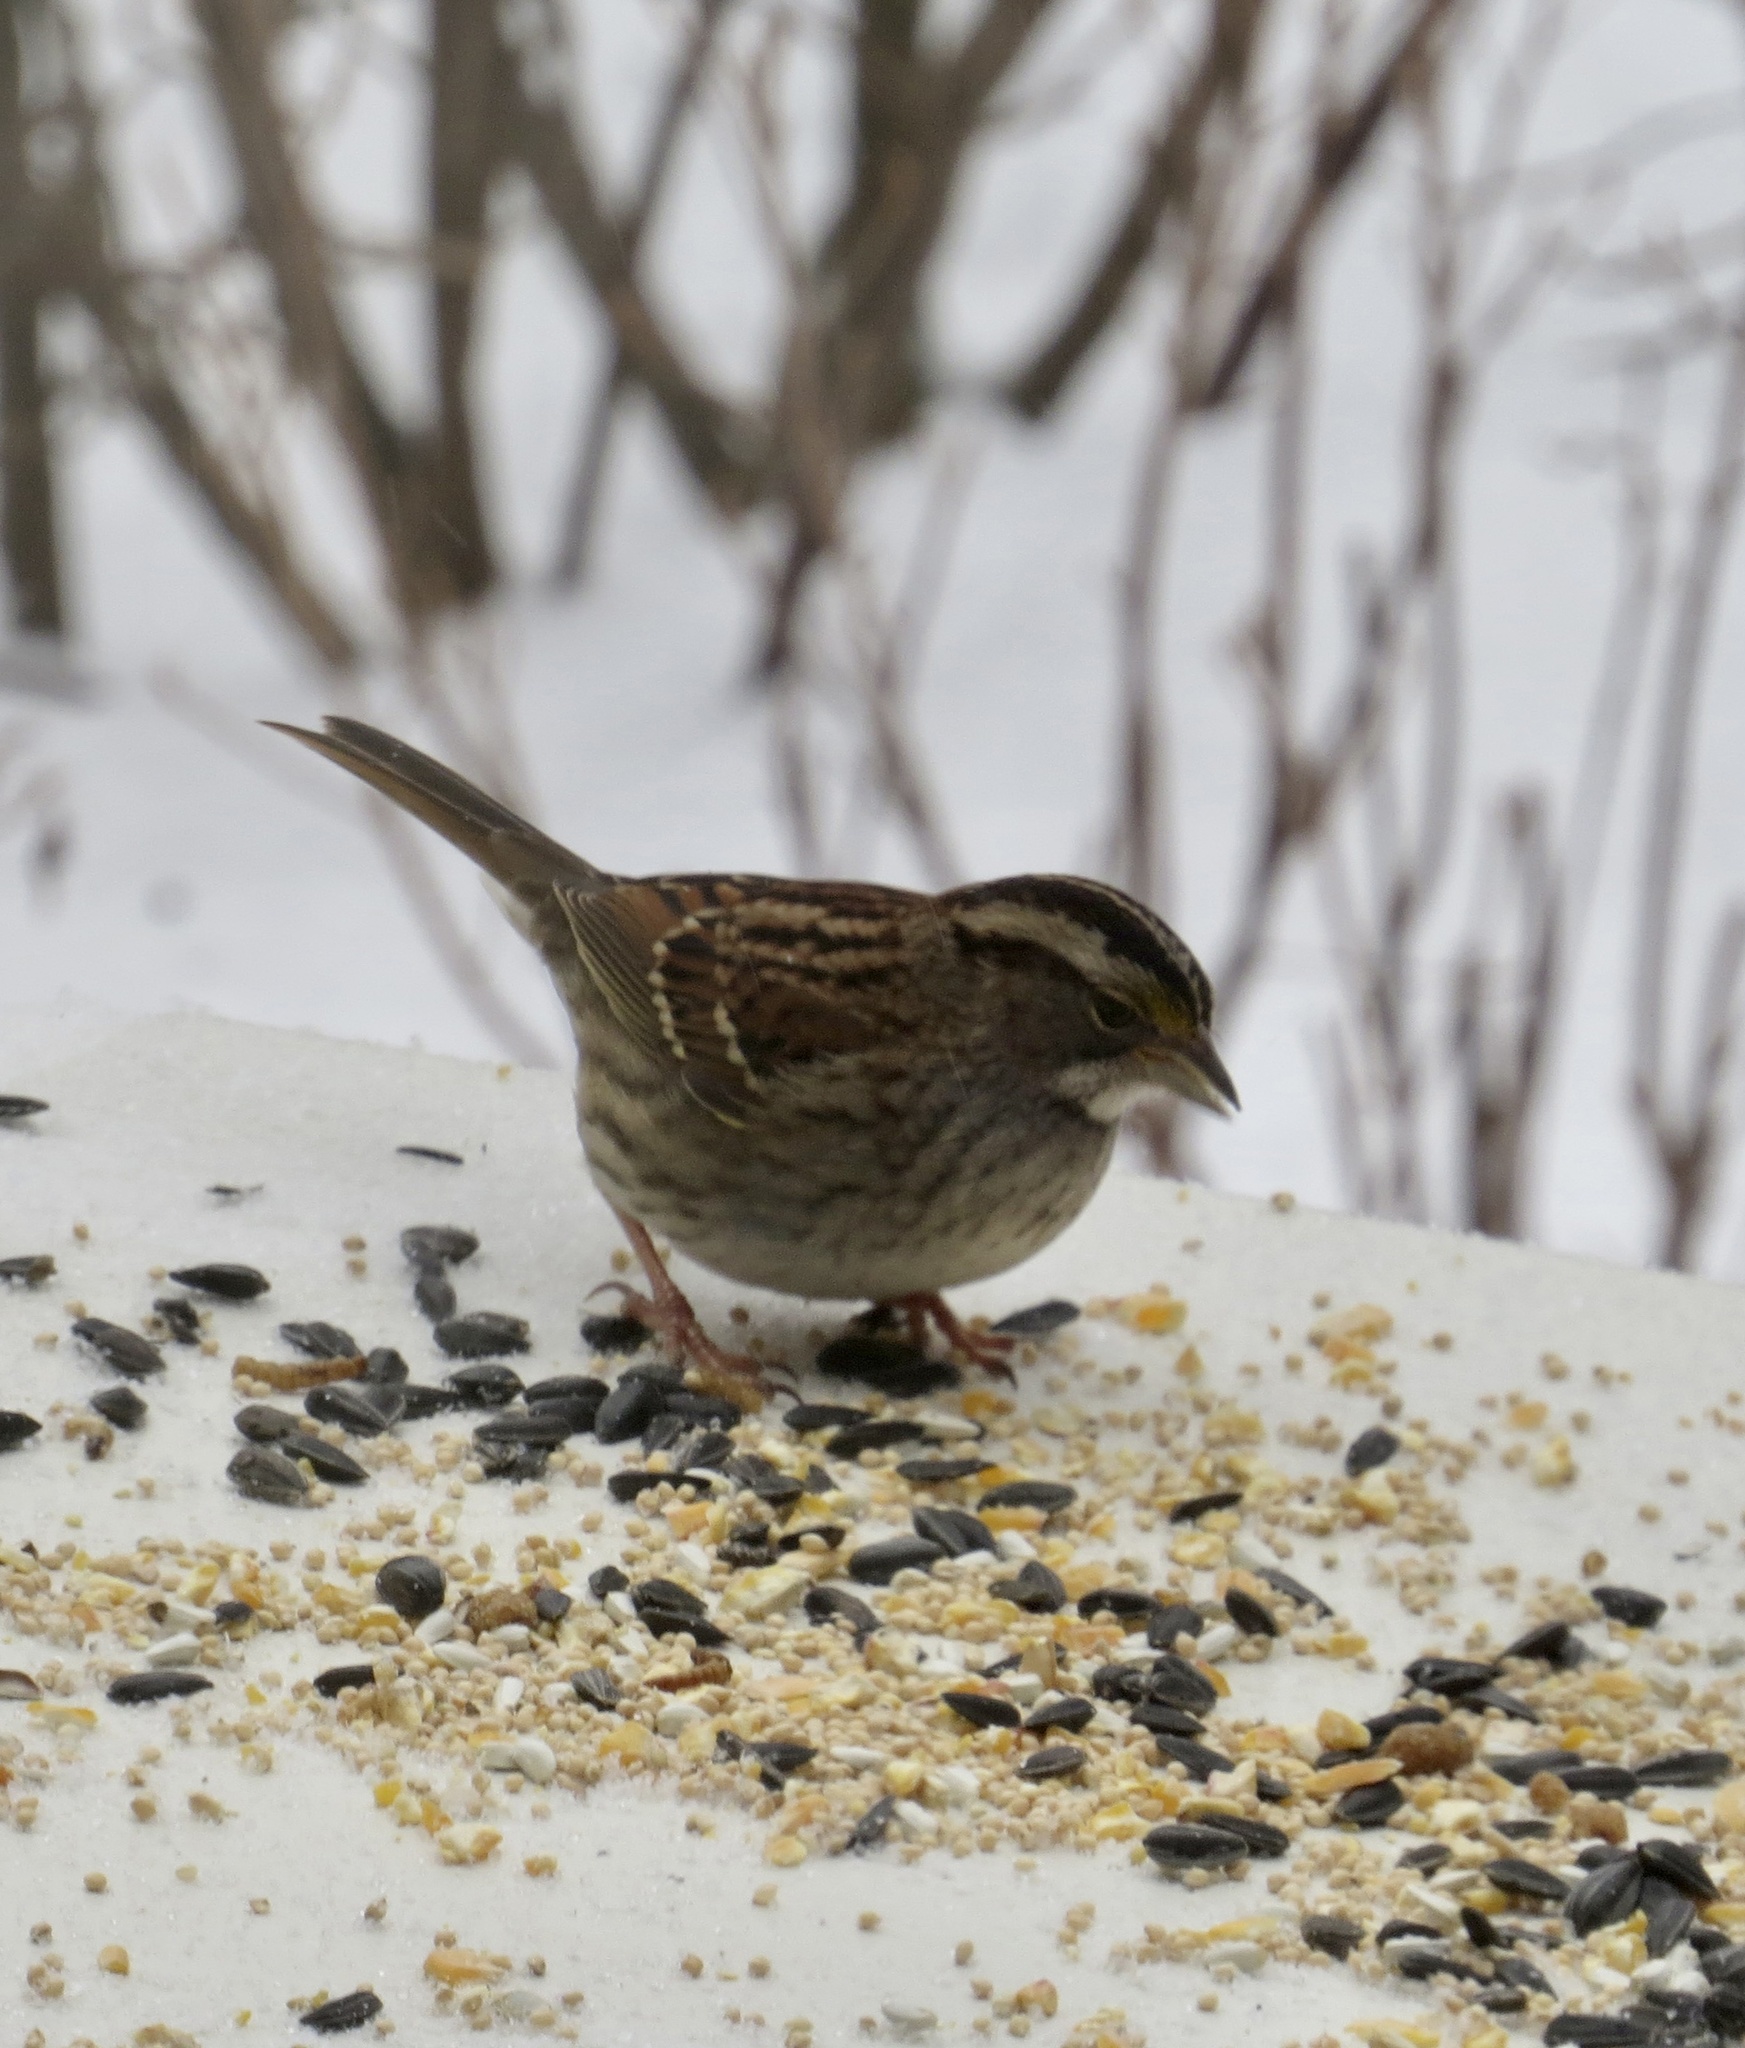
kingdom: Animalia
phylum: Chordata
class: Aves
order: Passeriformes
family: Passerellidae
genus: Zonotrichia
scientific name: Zonotrichia albicollis
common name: White-throated sparrow
